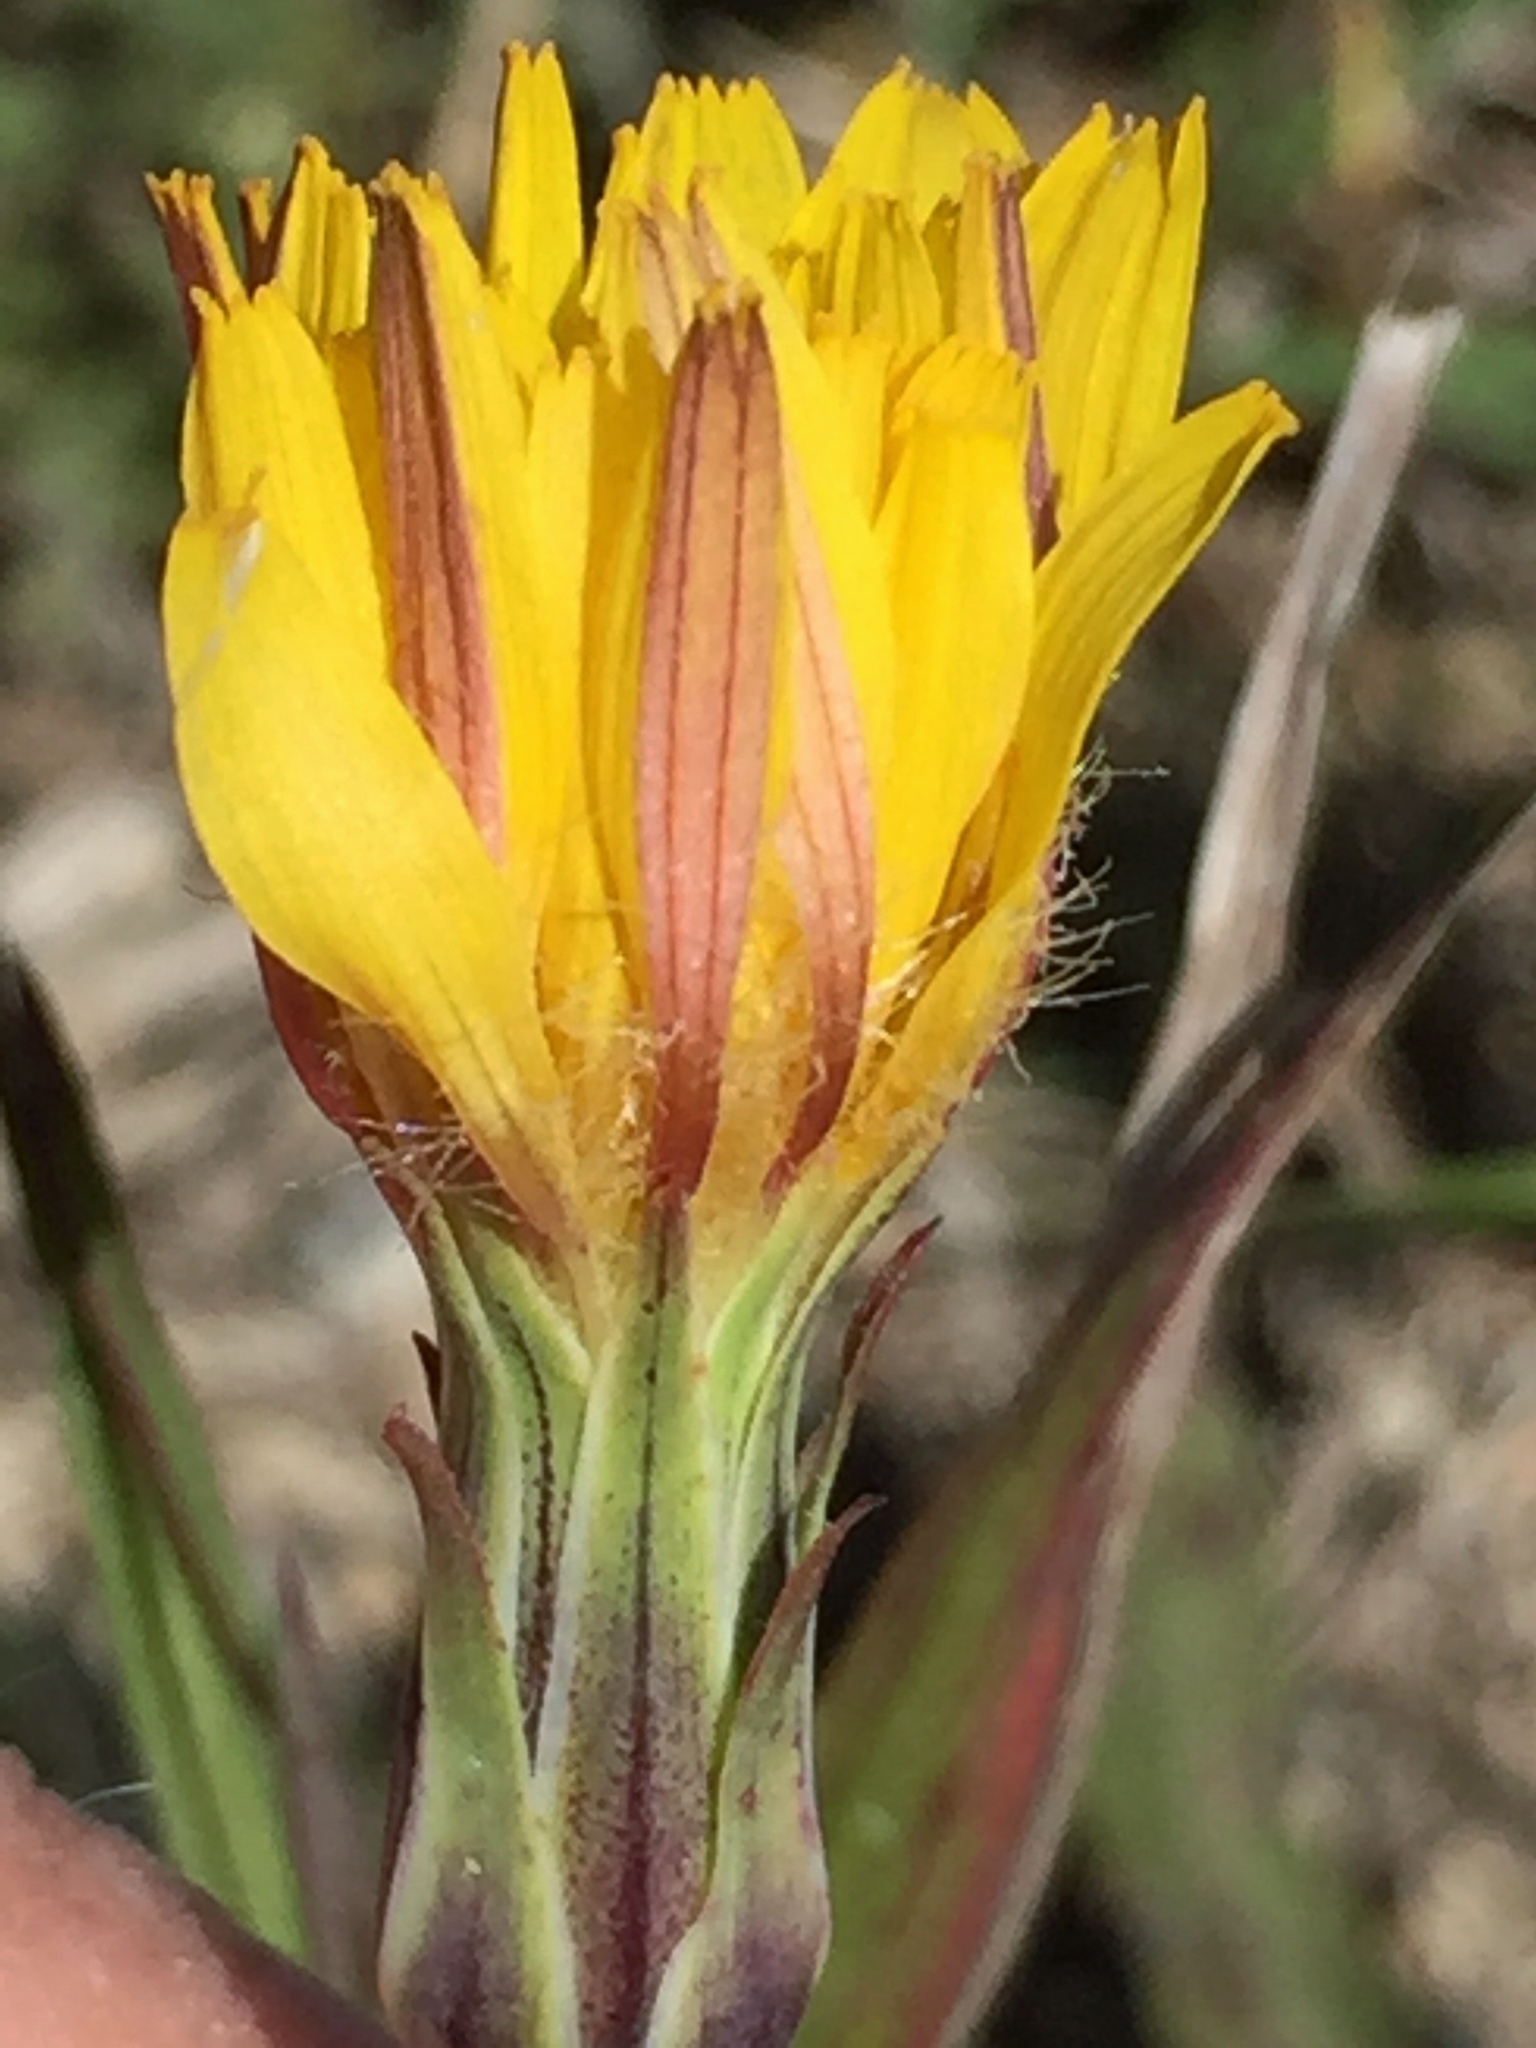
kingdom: Plantae
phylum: Tracheophyta
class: Magnoliopsida
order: Asterales
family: Asteraceae
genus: Agoseris
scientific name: Agoseris glauca
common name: Prairie agoseris
